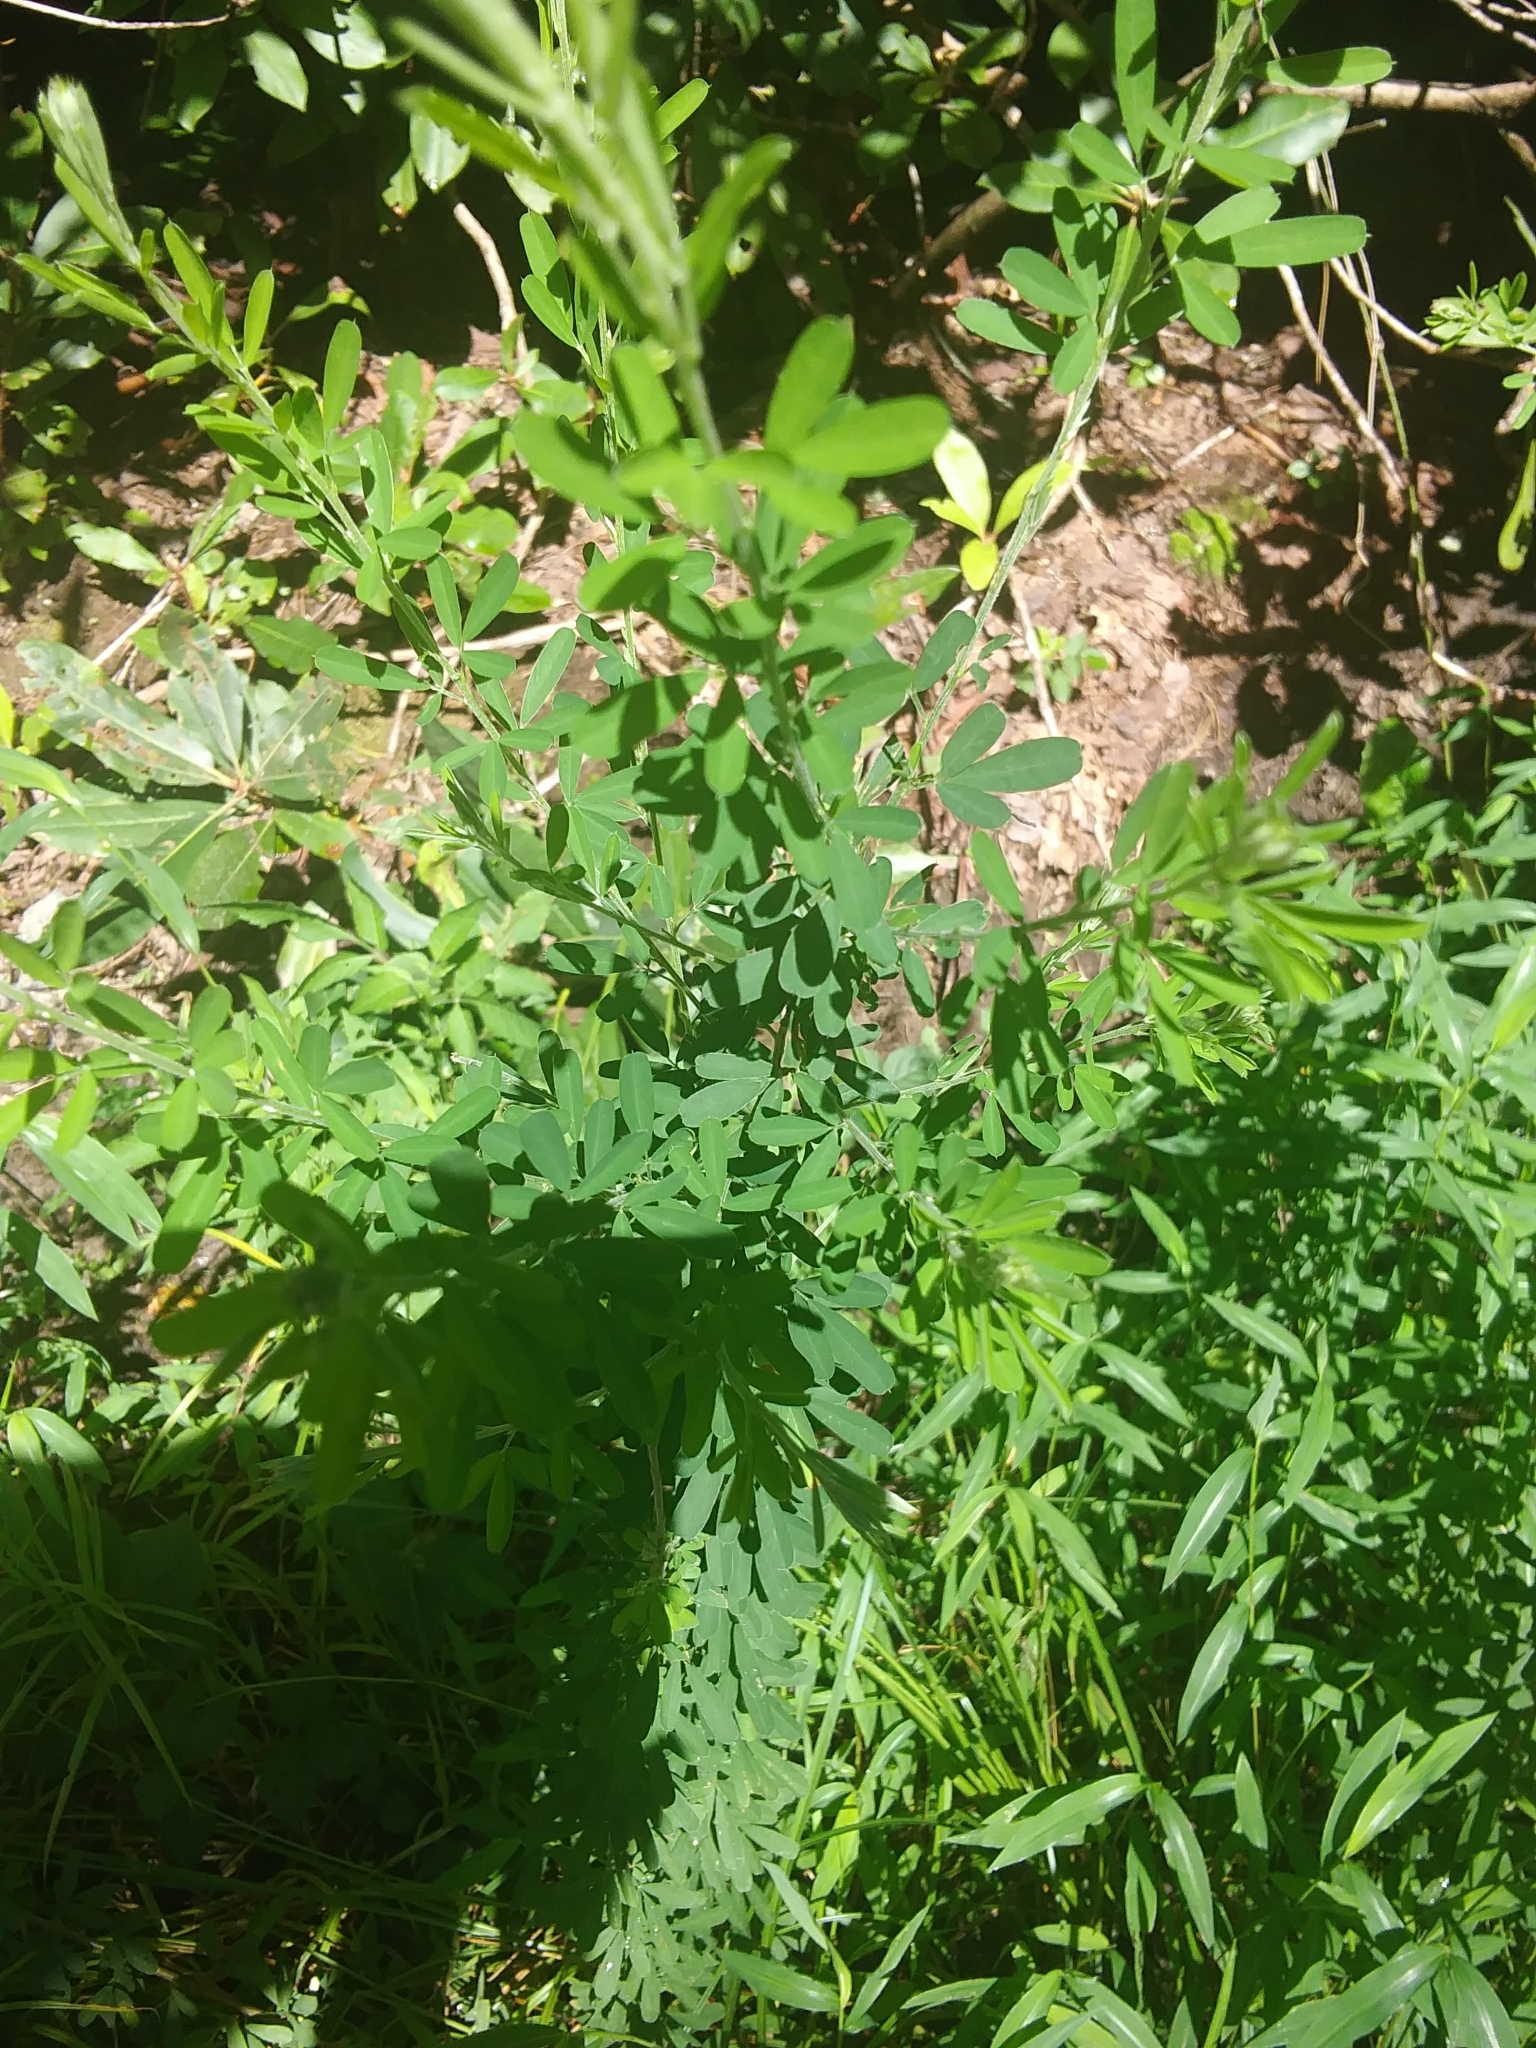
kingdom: Plantae
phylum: Tracheophyta
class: Magnoliopsida
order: Fabales
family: Fabaceae
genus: Lespedeza
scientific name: Lespedeza cuneata
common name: Chinese bush-clover
